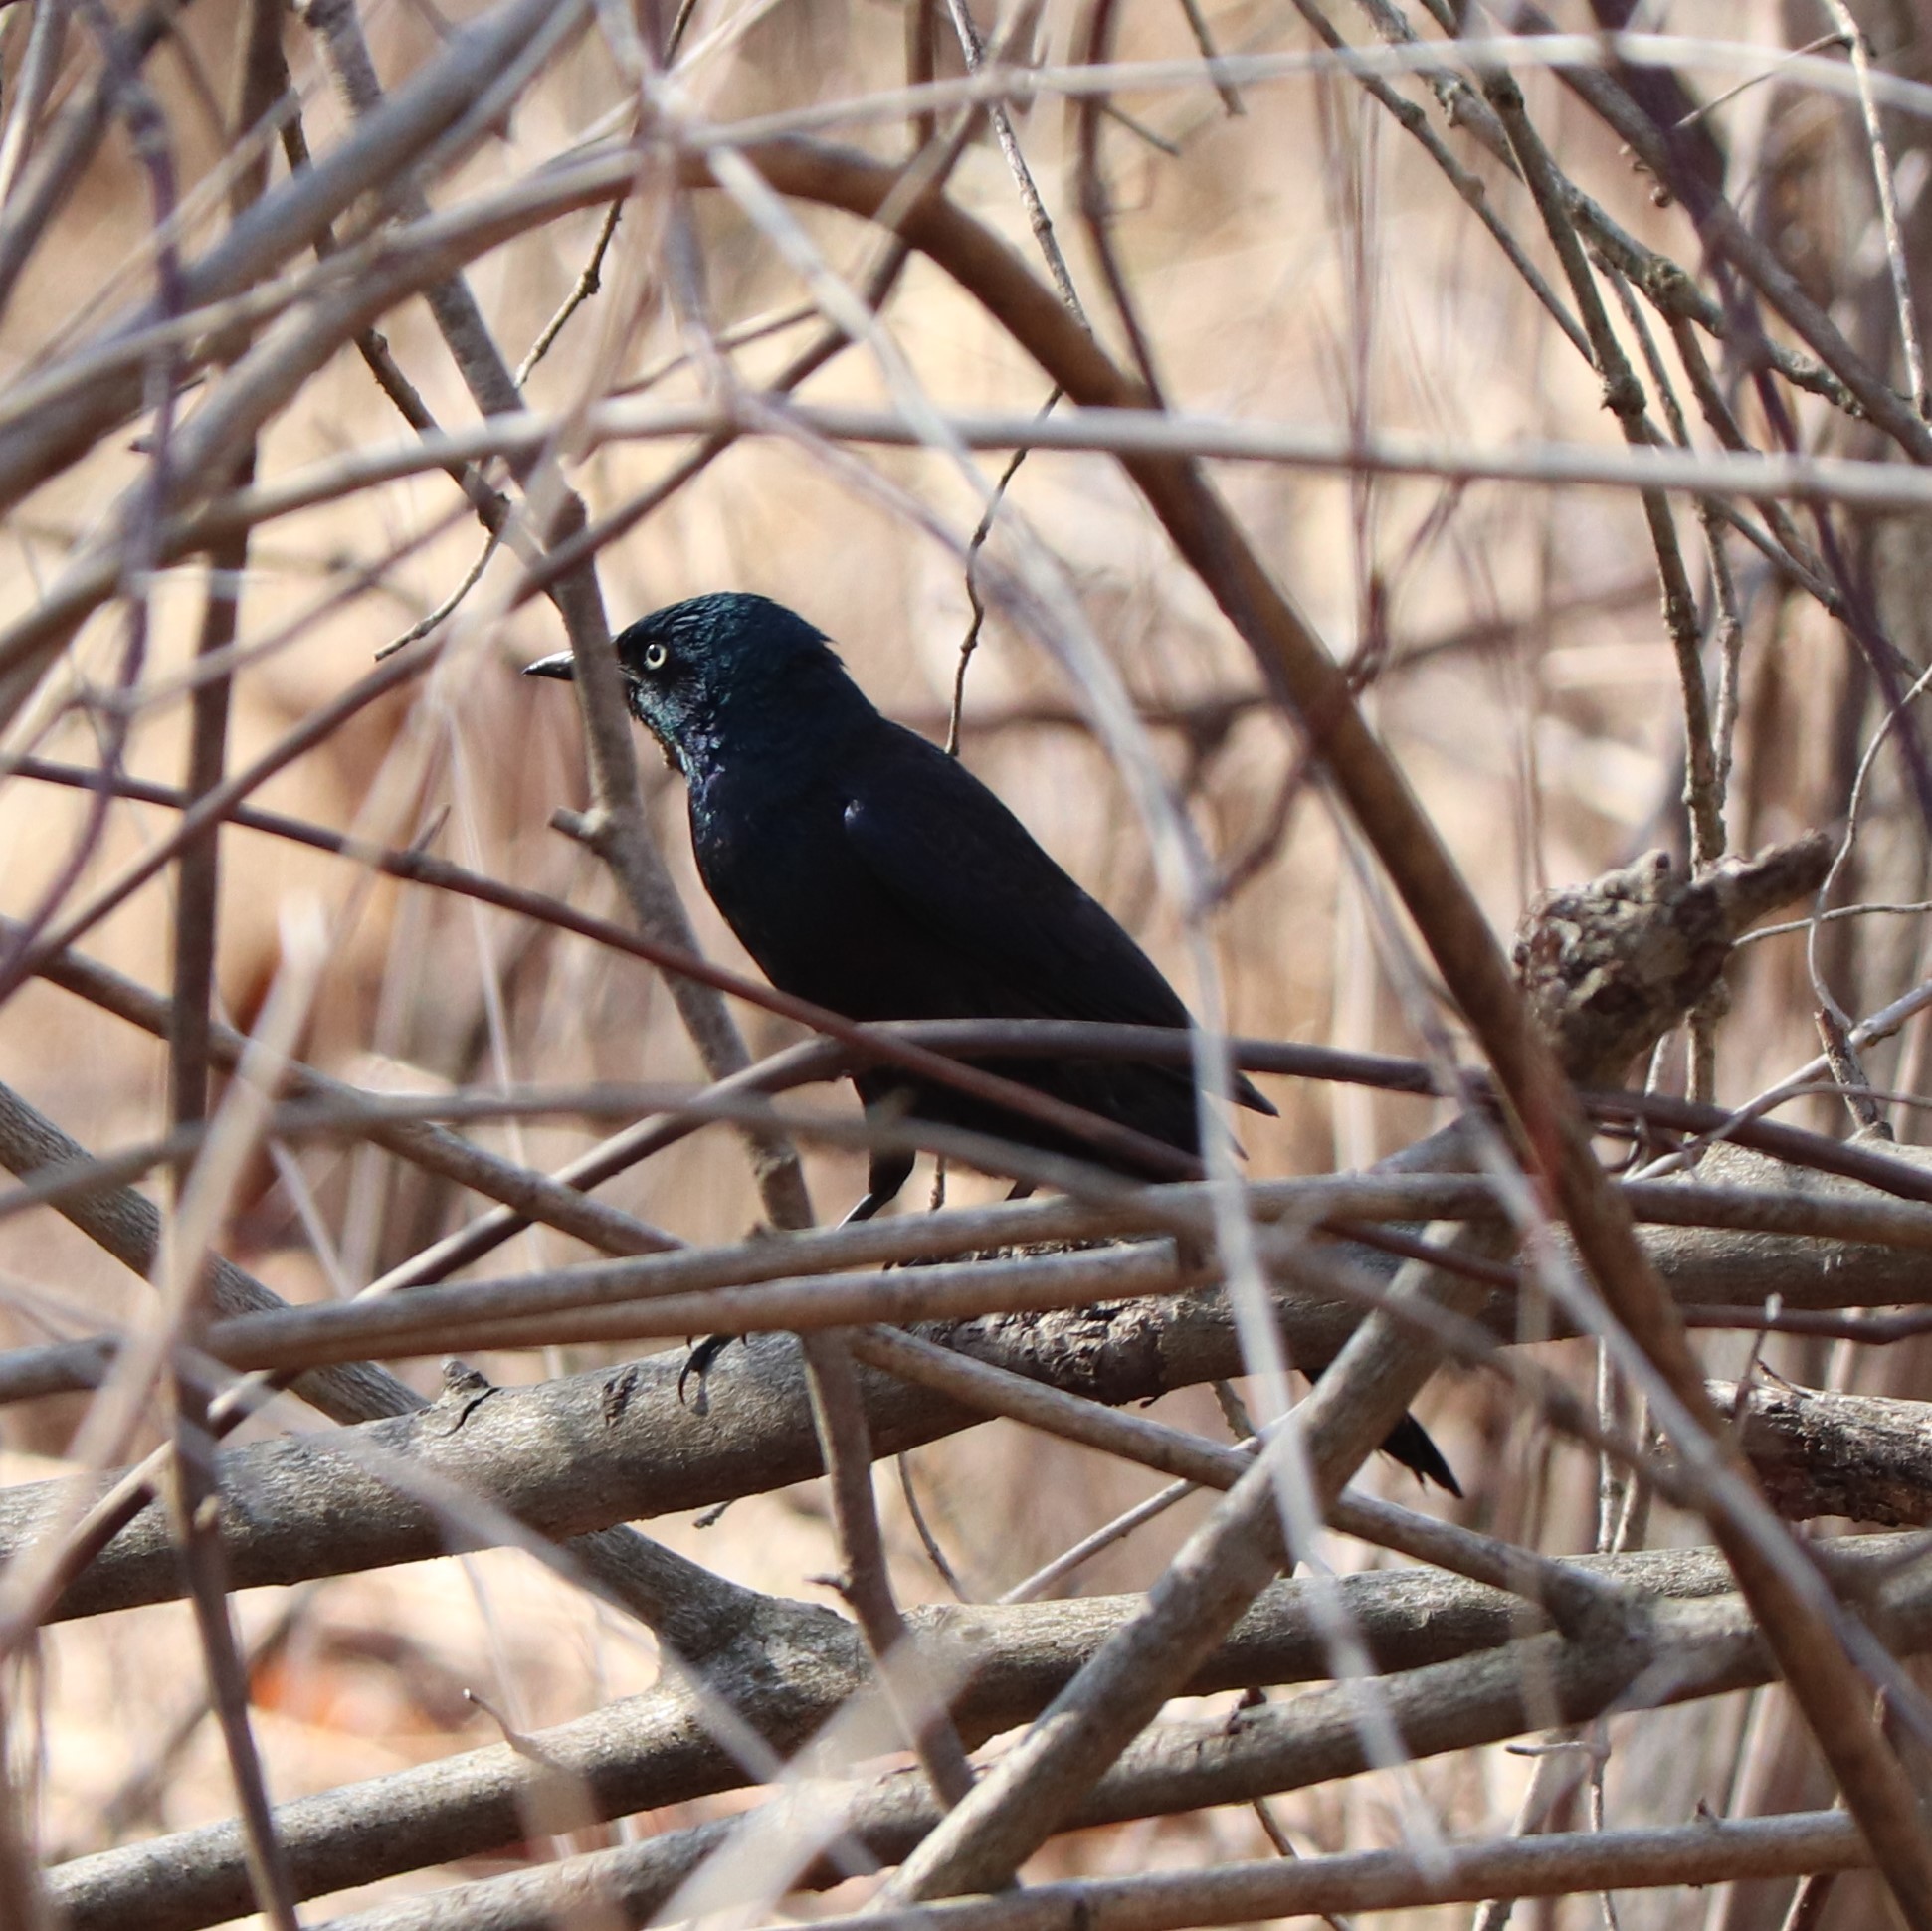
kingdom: Animalia
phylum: Chordata
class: Aves
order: Passeriformes
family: Icteridae
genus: Quiscalus
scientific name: Quiscalus quiscula
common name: Common grackle
